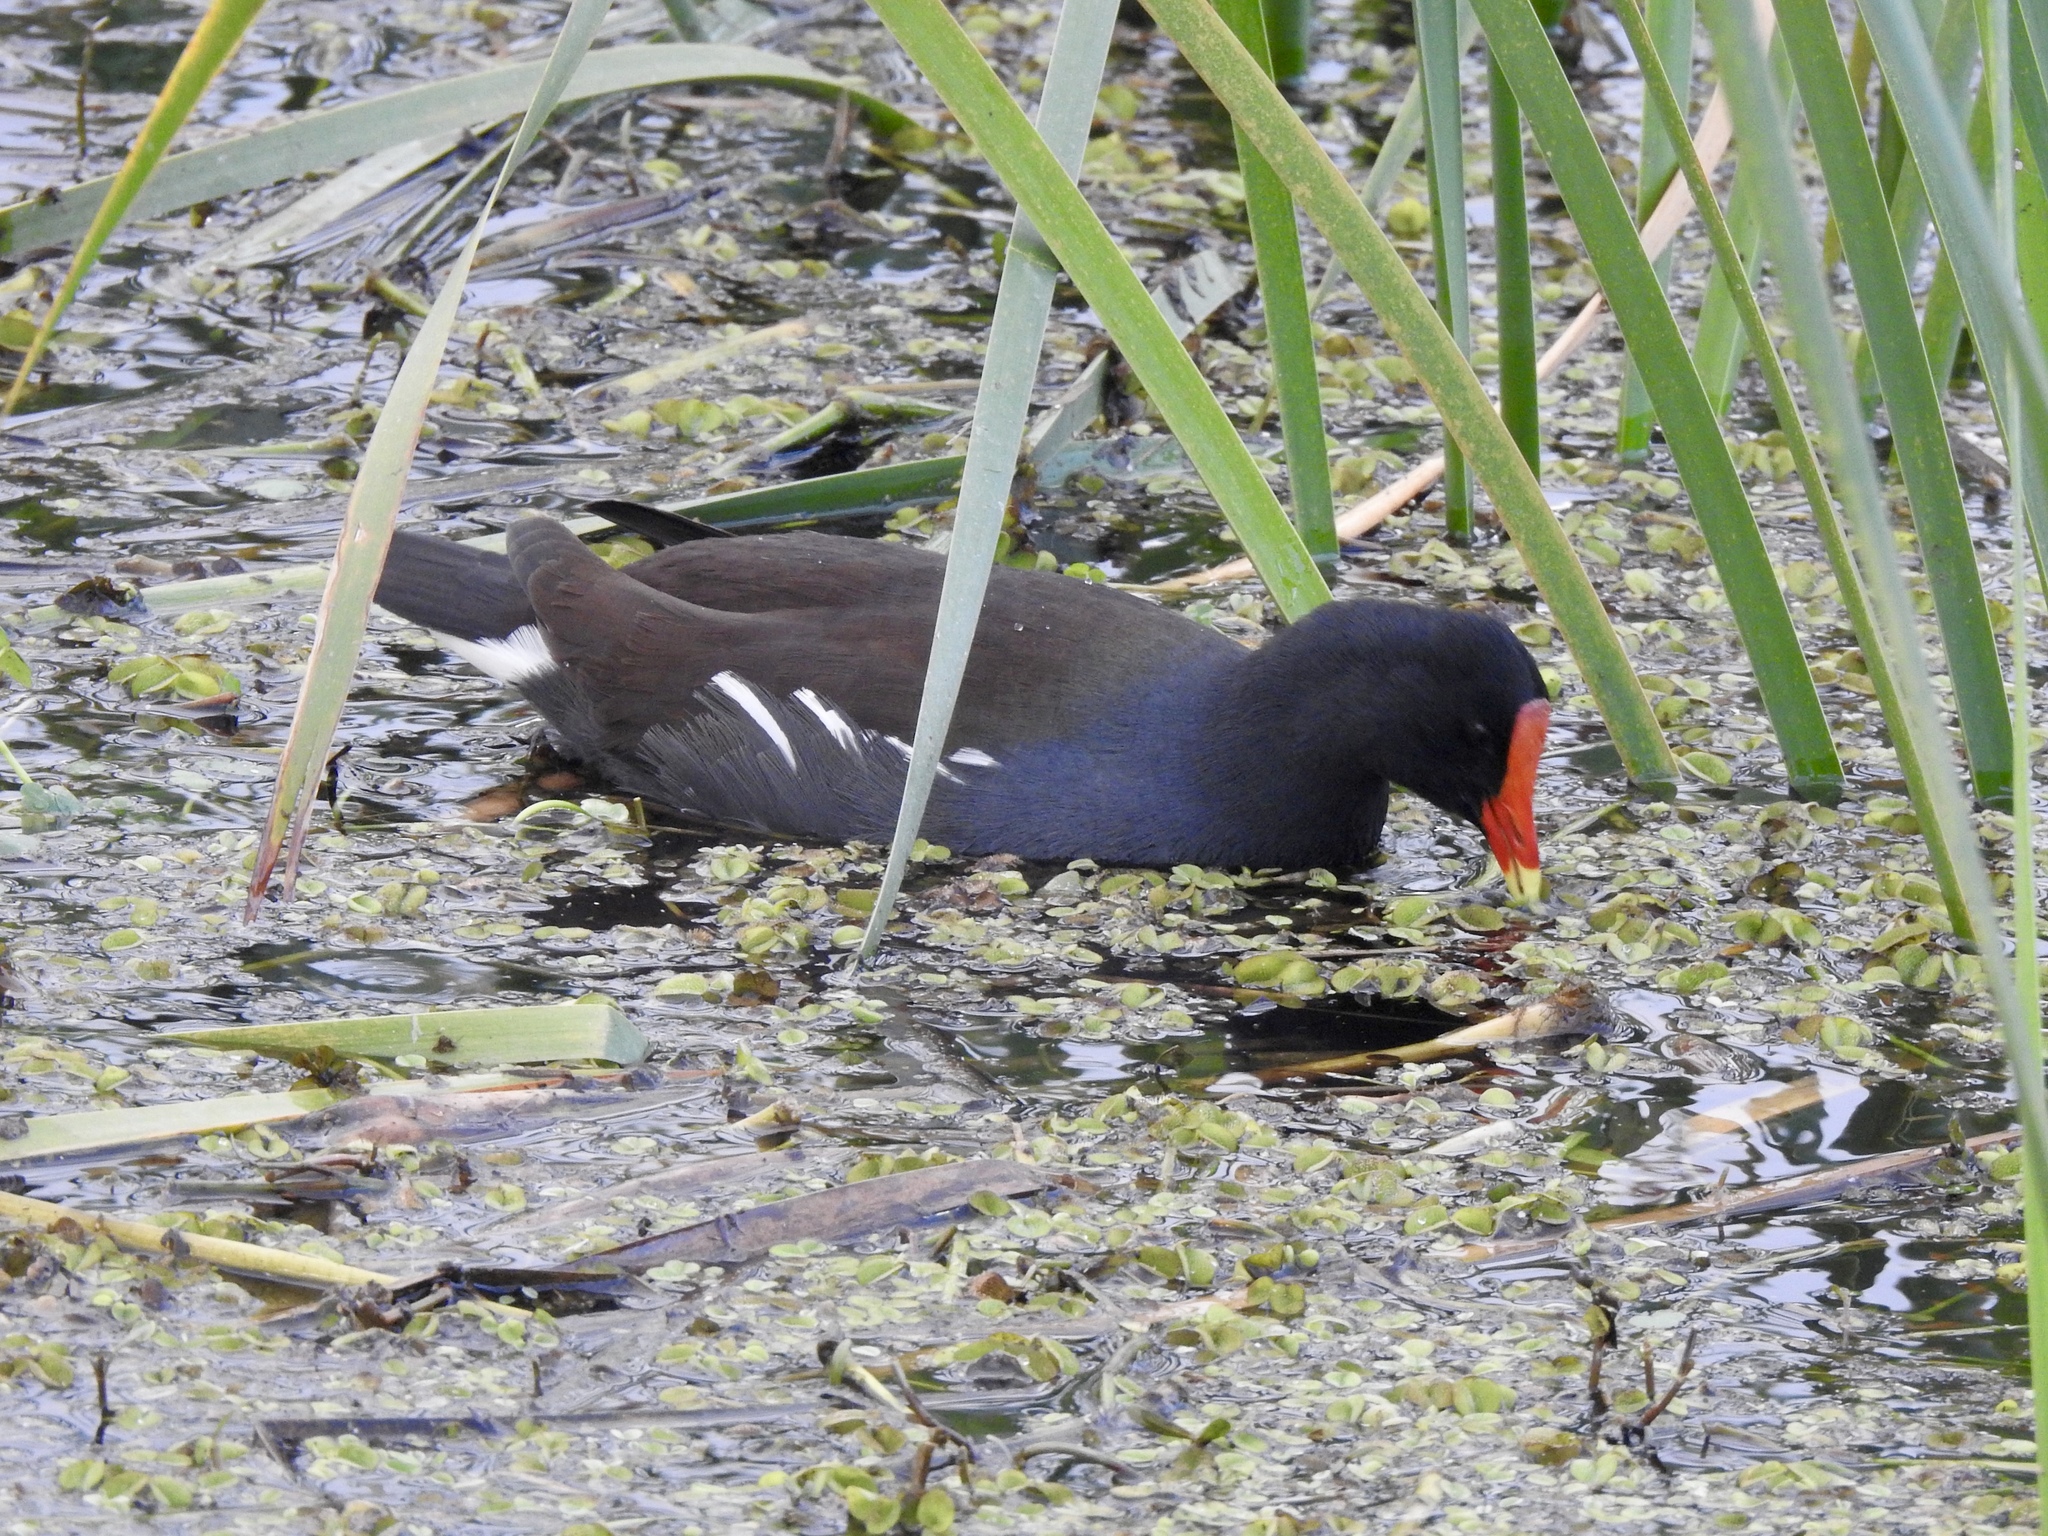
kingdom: Animalia
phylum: Chordata
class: Aves
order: Gruiformes
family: Rallidae
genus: Gallinula
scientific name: Gallinula chloropus
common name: Common moorhen
